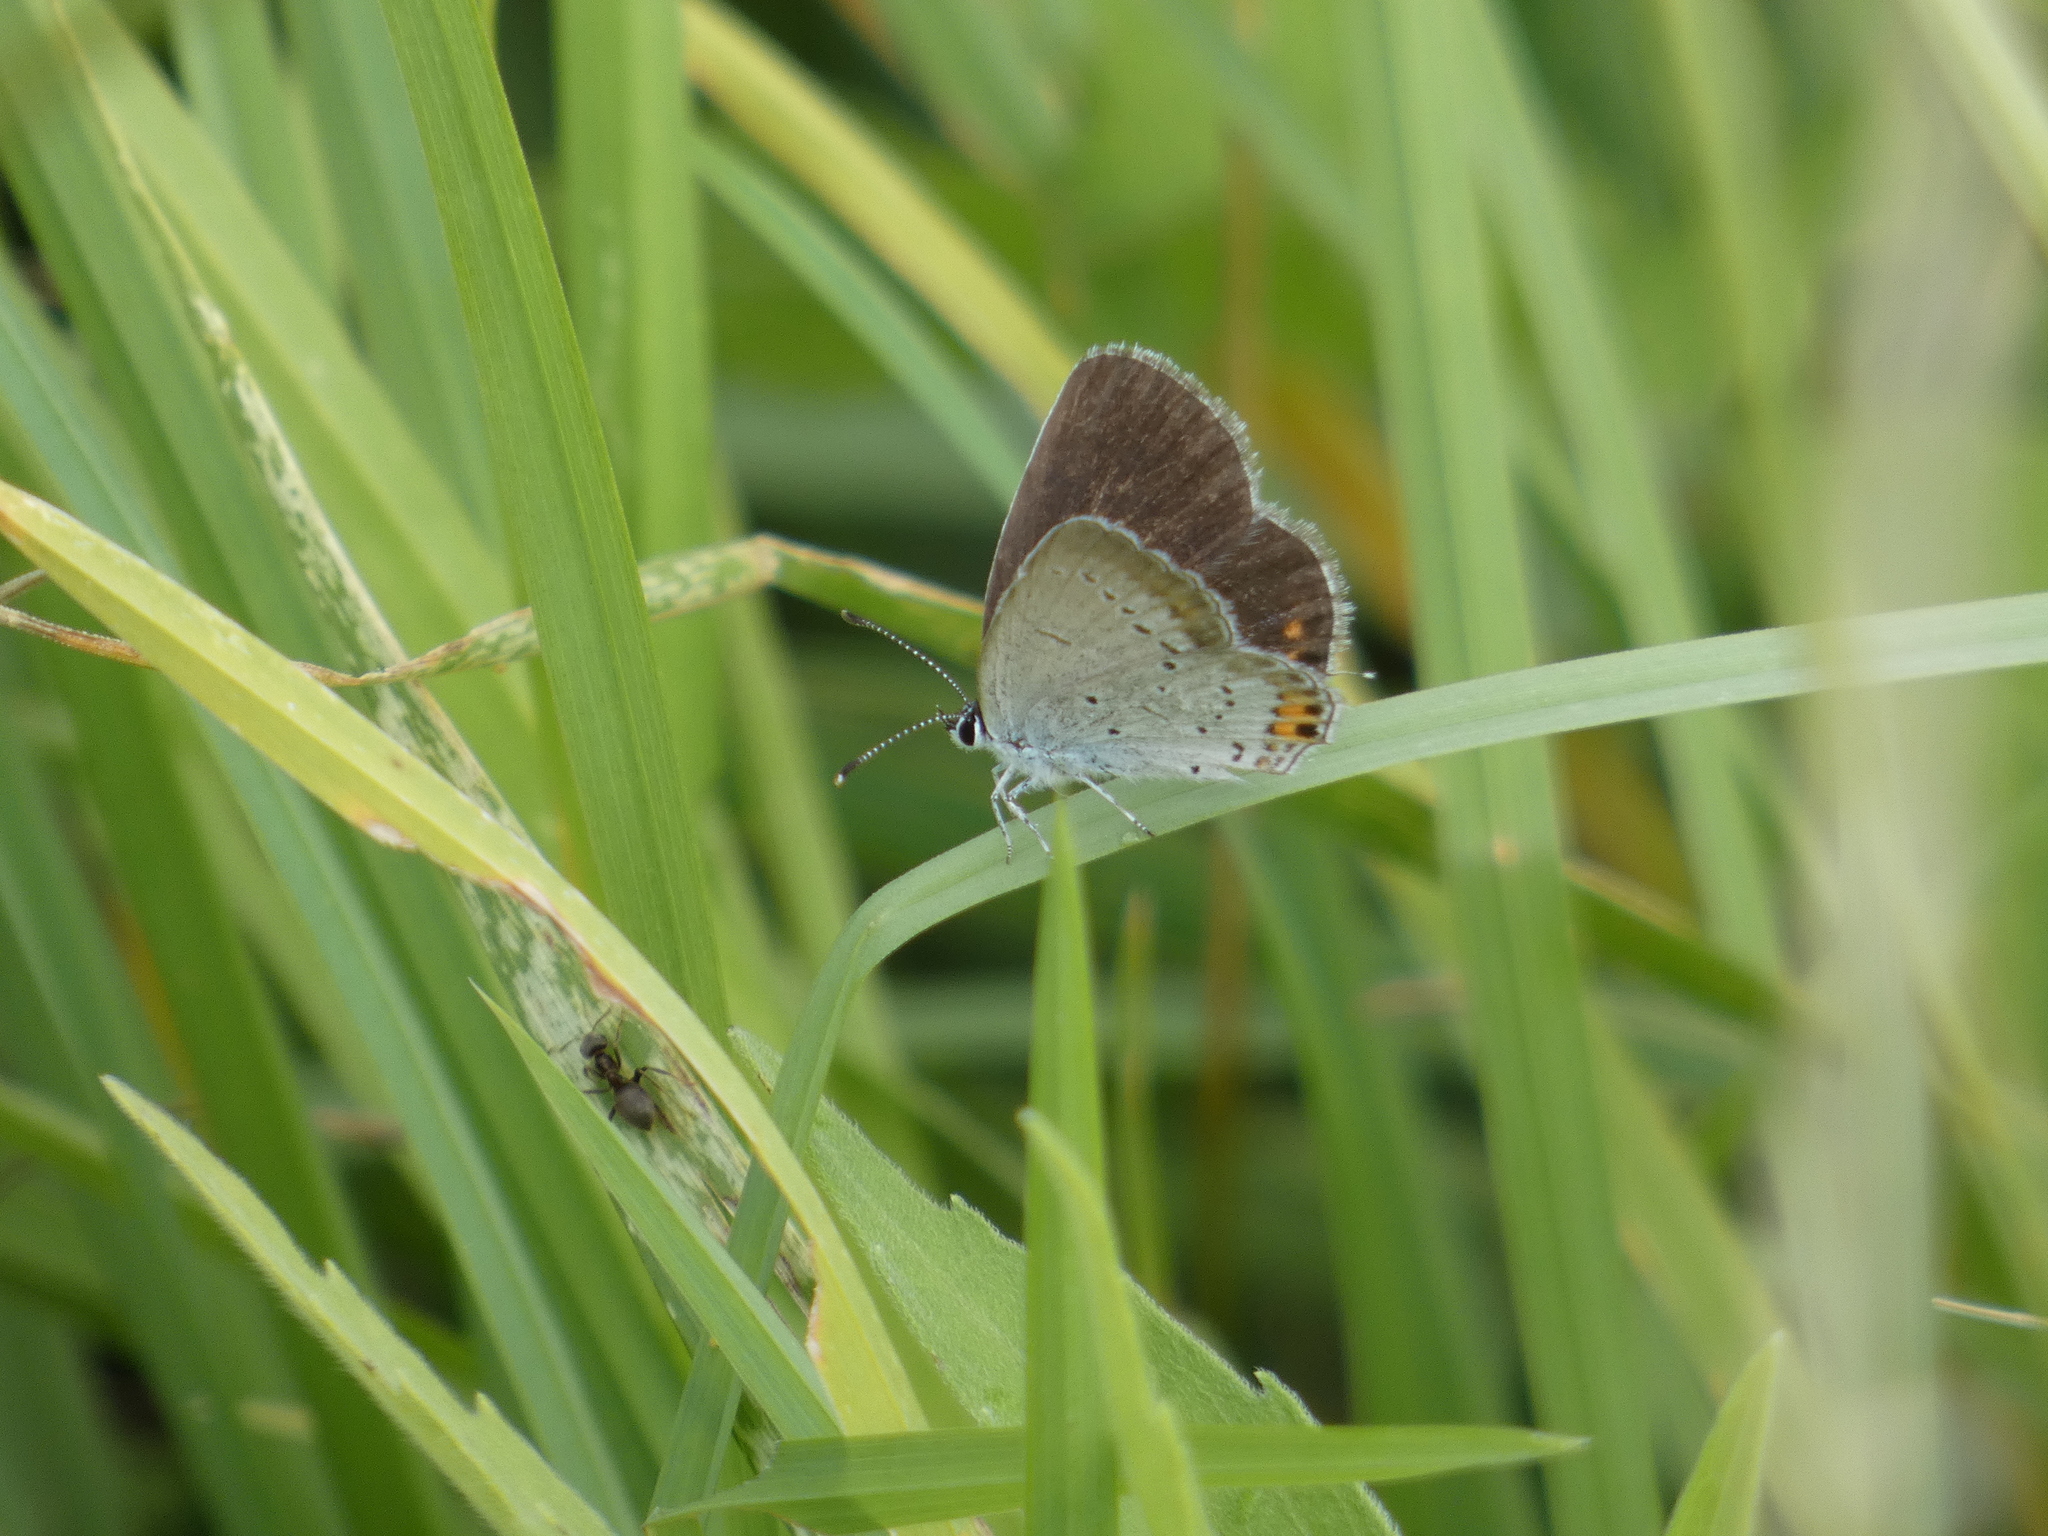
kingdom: Animalia
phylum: Arthropoda
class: Insecta
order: Lepidoptera
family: Lycaenidae
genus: Elkalyce
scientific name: Elkalyce argiades
